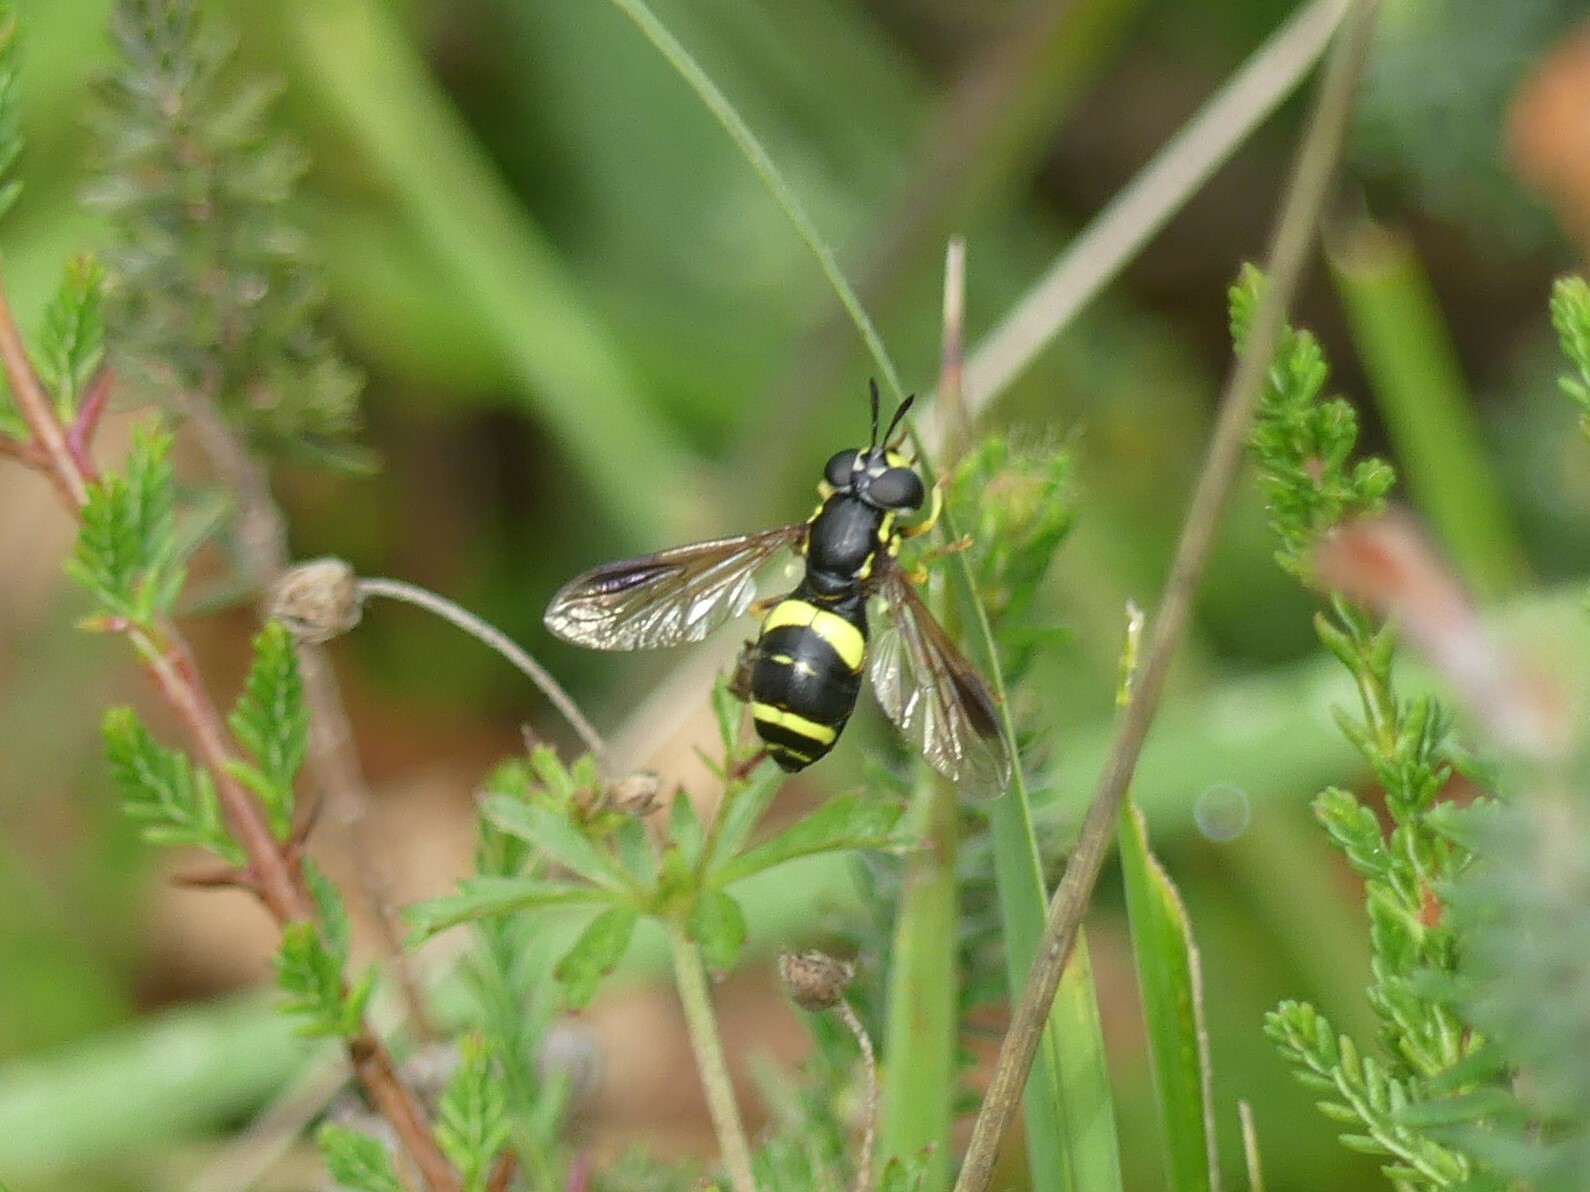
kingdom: Animalia
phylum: Arthropoda
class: Insecta
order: Diptera
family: Syrphidae
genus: Chrysotoxum
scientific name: Chrysotoxum bicincta
